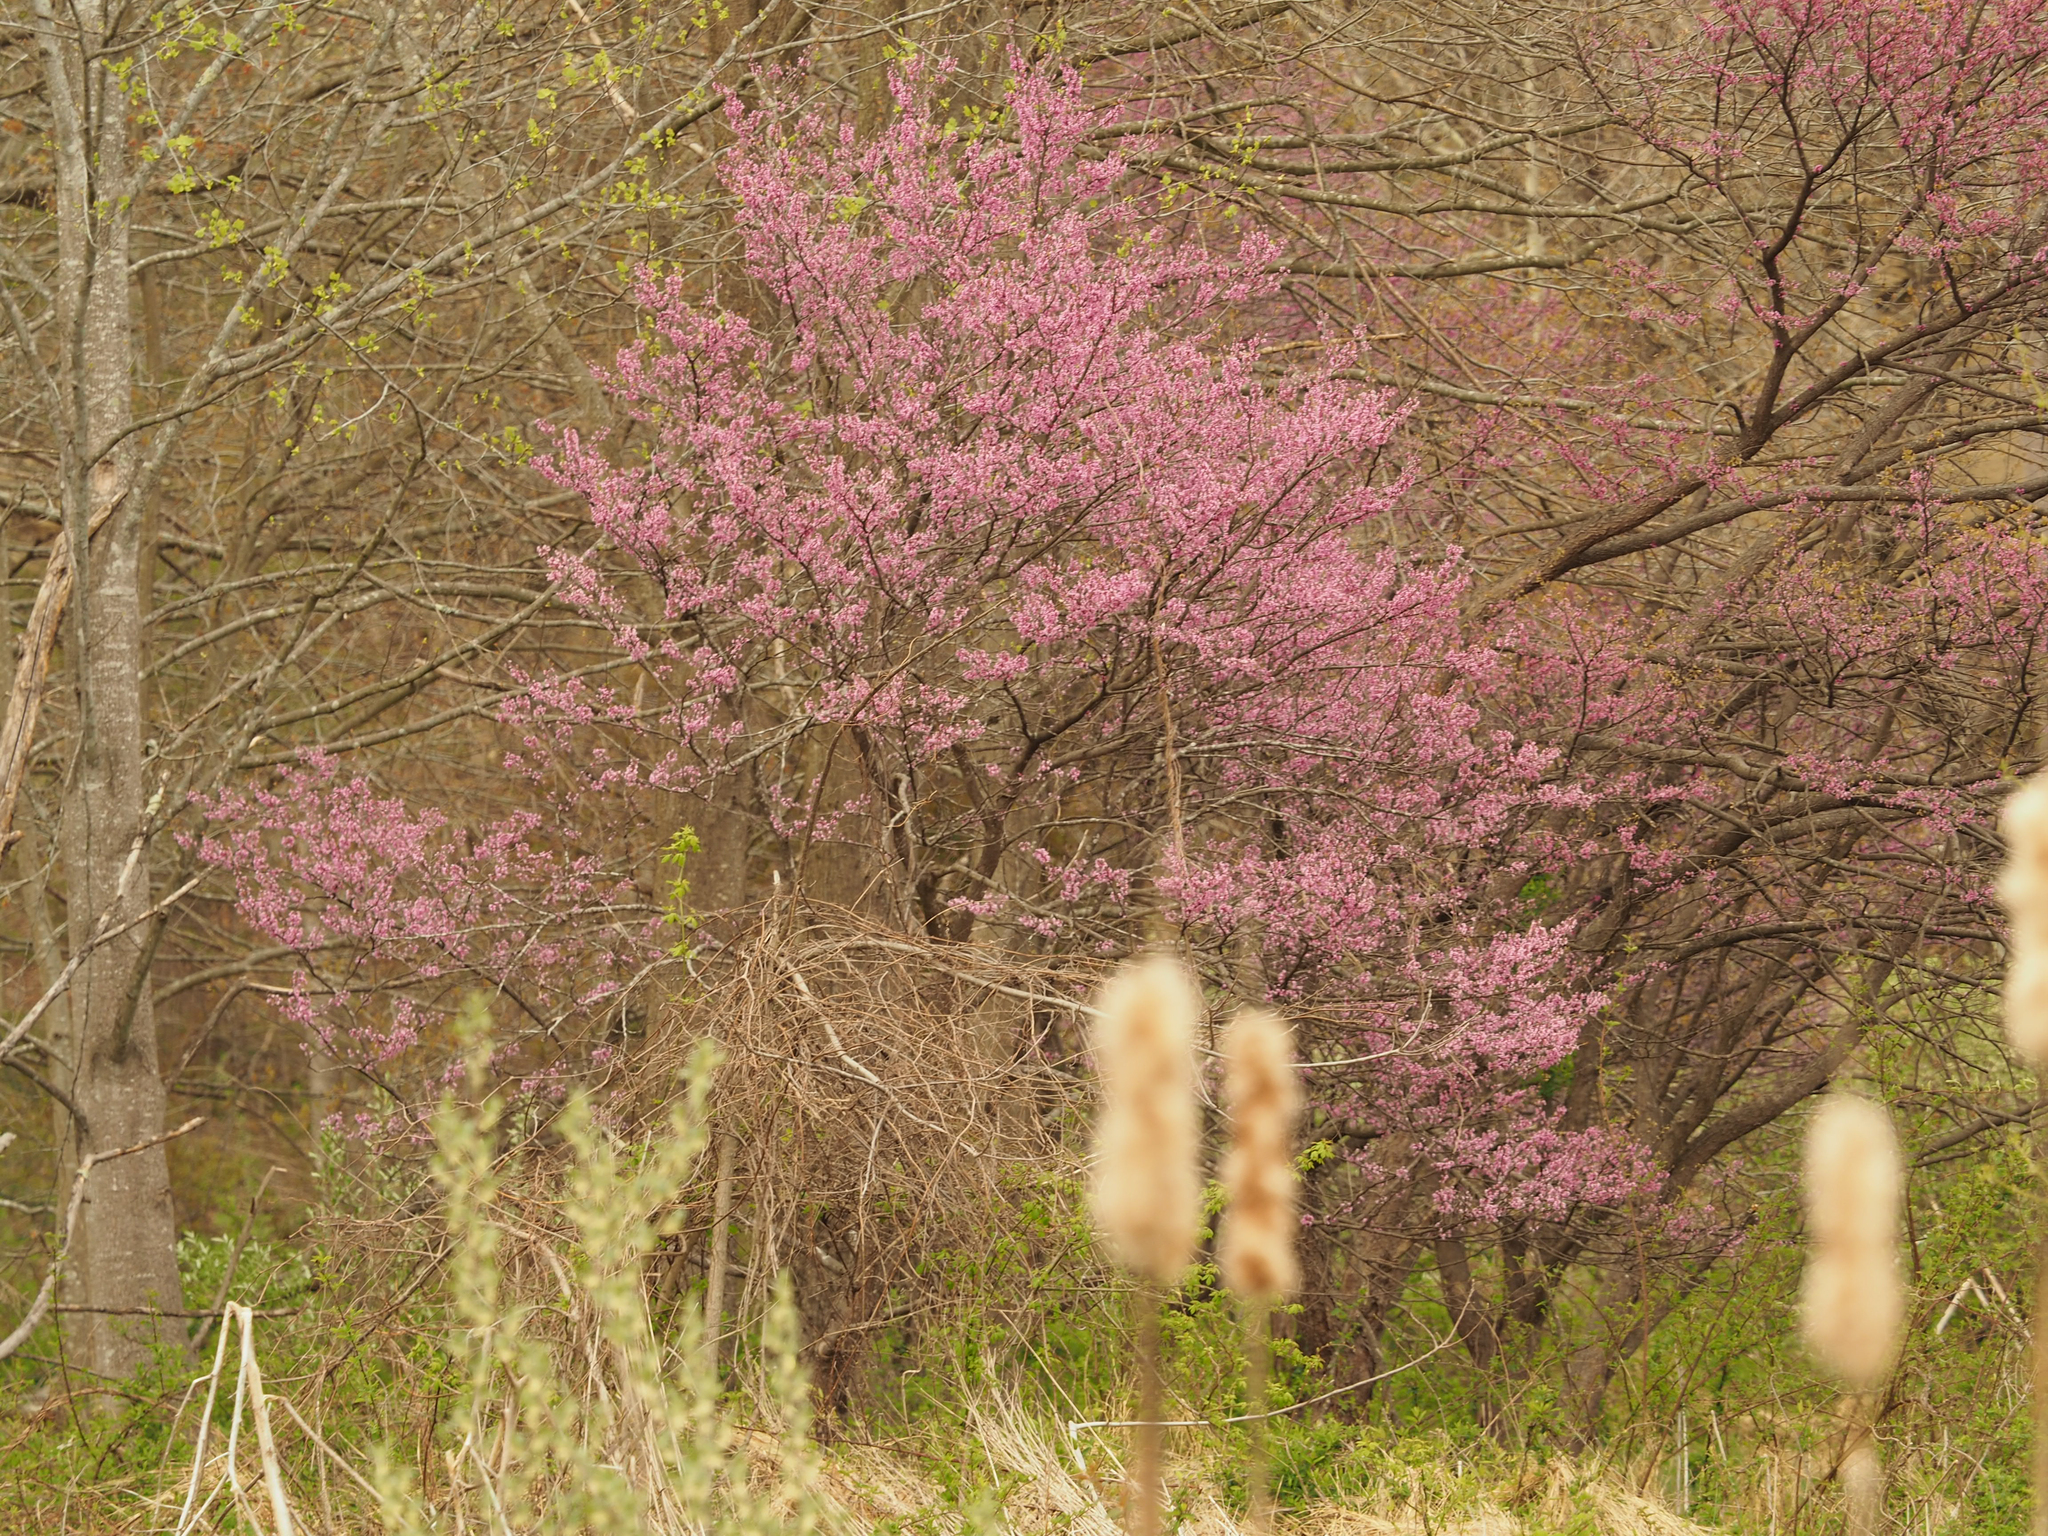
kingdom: Plantae
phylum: Tracheophyta
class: Magnoliopsida
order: Fabales
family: Fabaceae
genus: Cercis
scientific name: Cercis canadensis
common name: Eastern redbud
